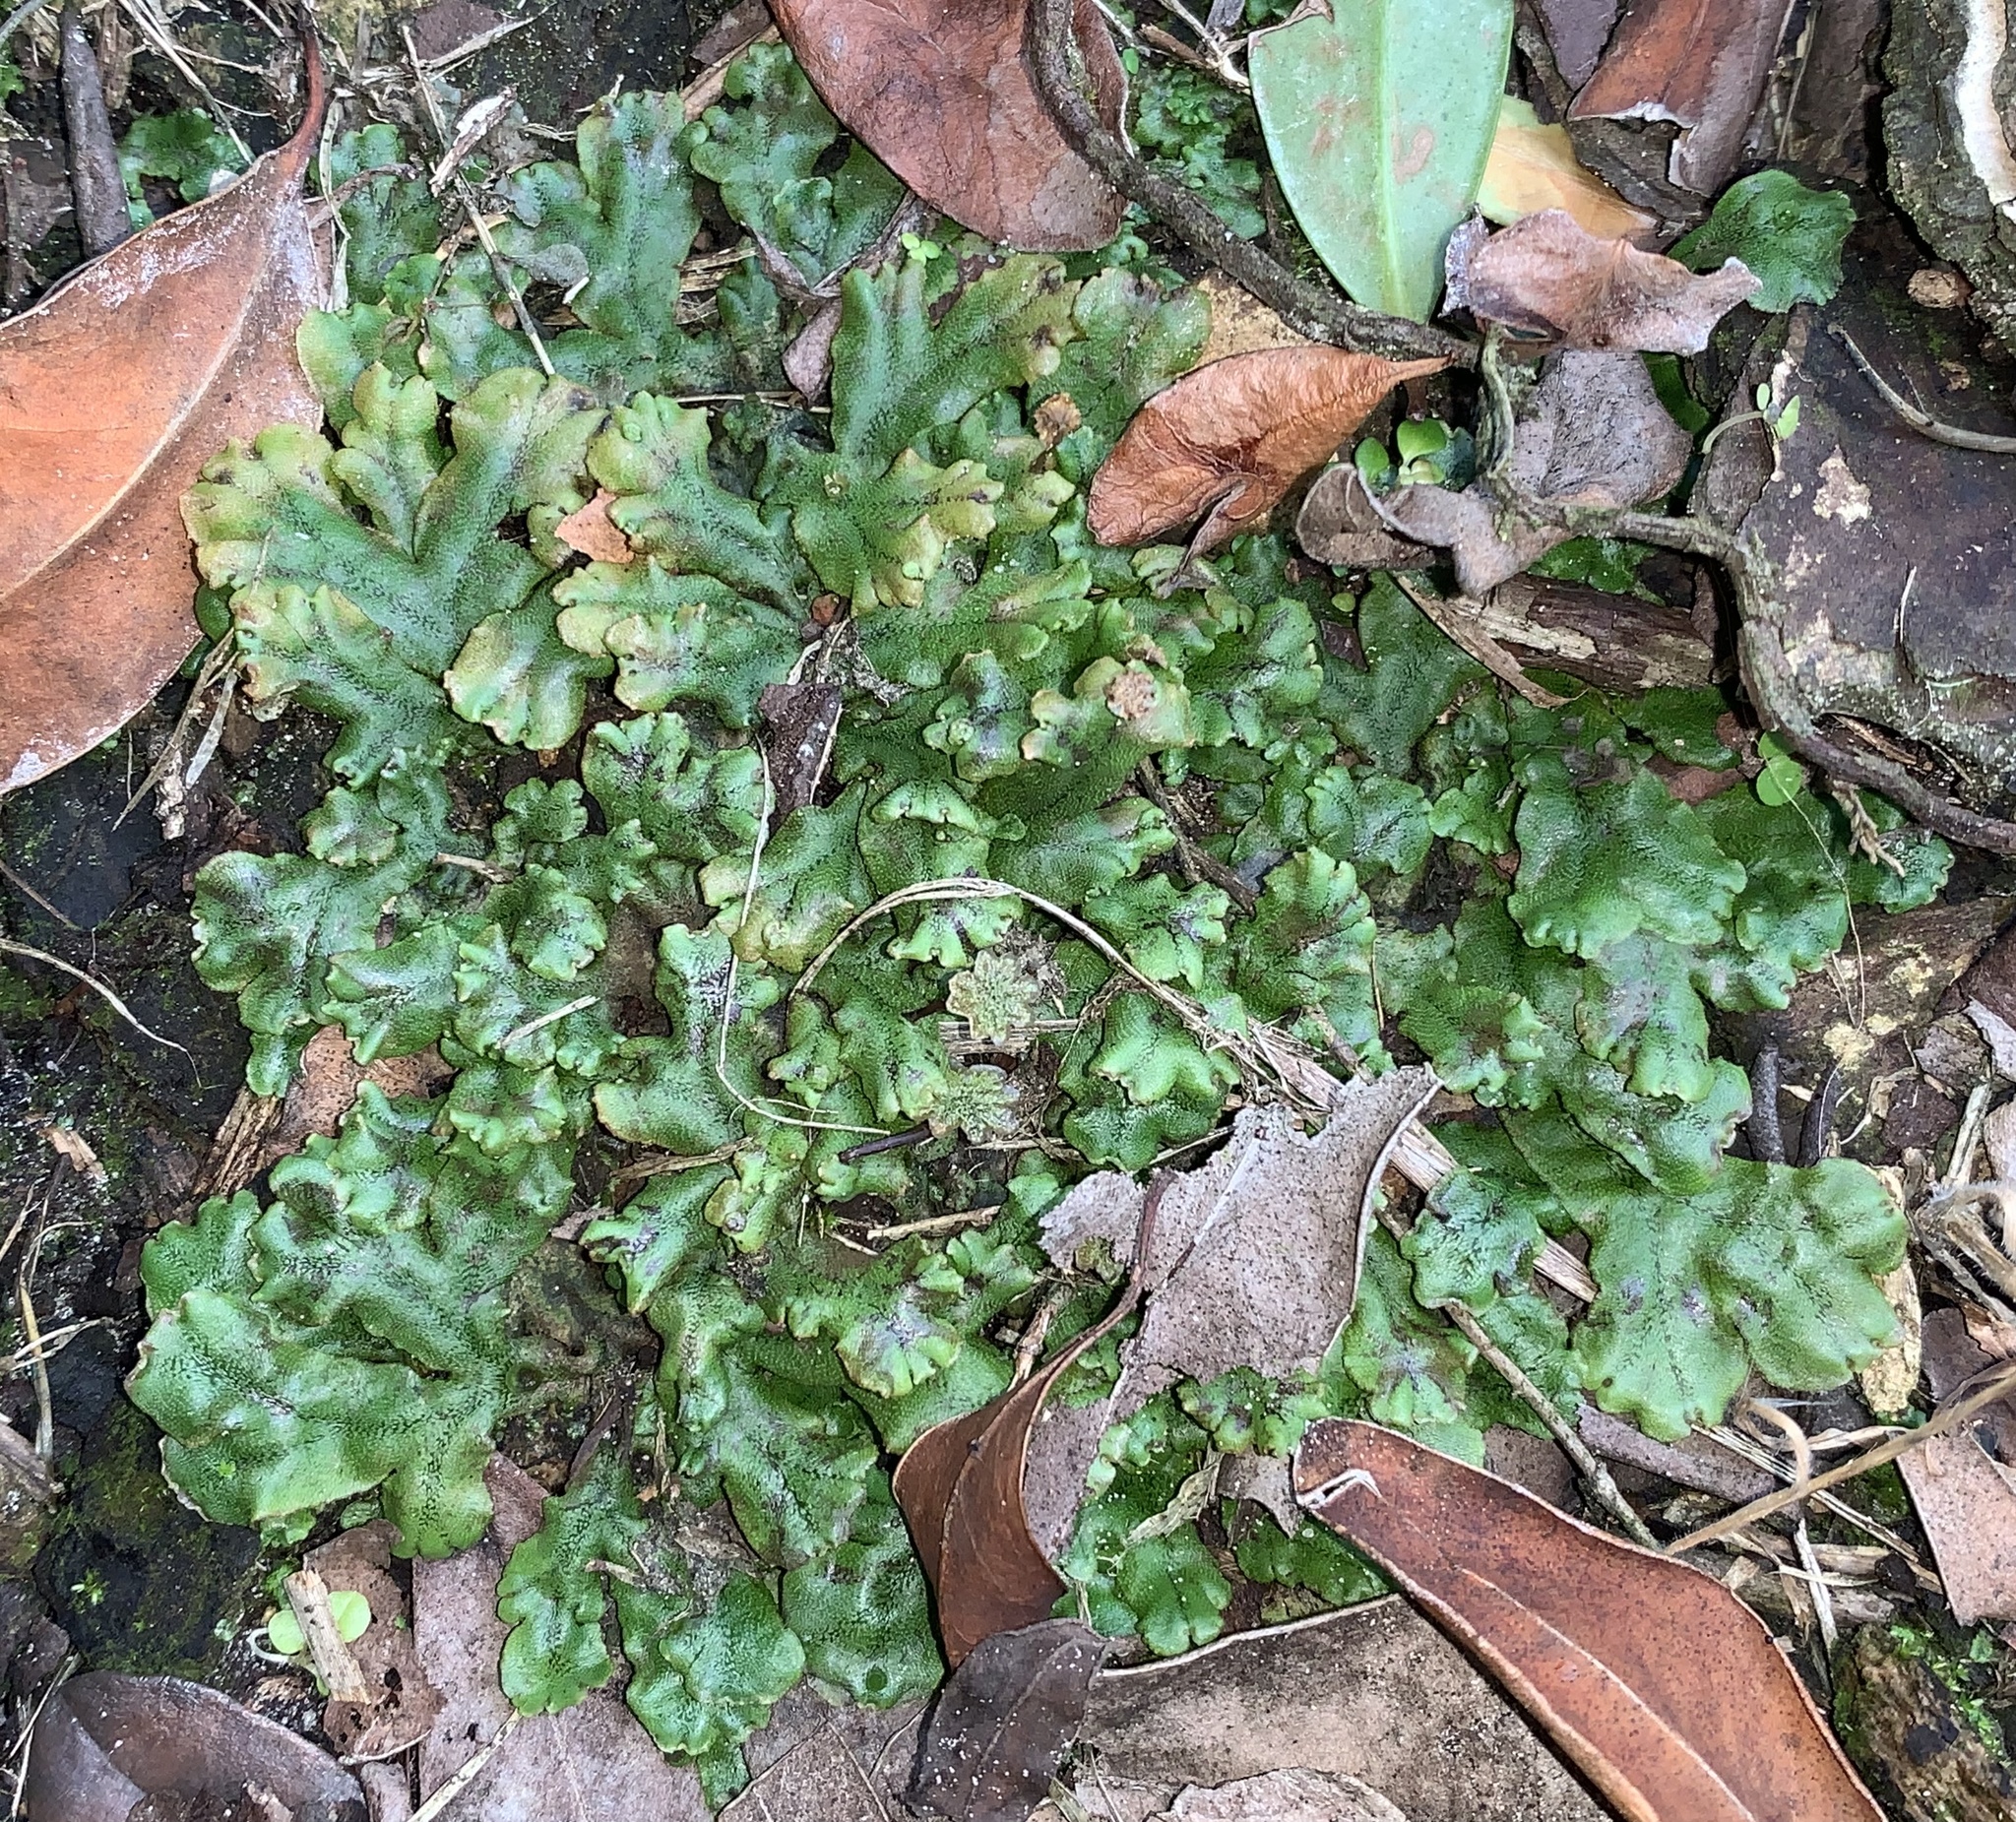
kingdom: Plantae
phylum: Marchantiophyta
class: Marchantiopsida
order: Marchantiales
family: Marchantiaceae
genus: Marchantia
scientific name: Marchantia polymorpha
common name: Common liverwort
